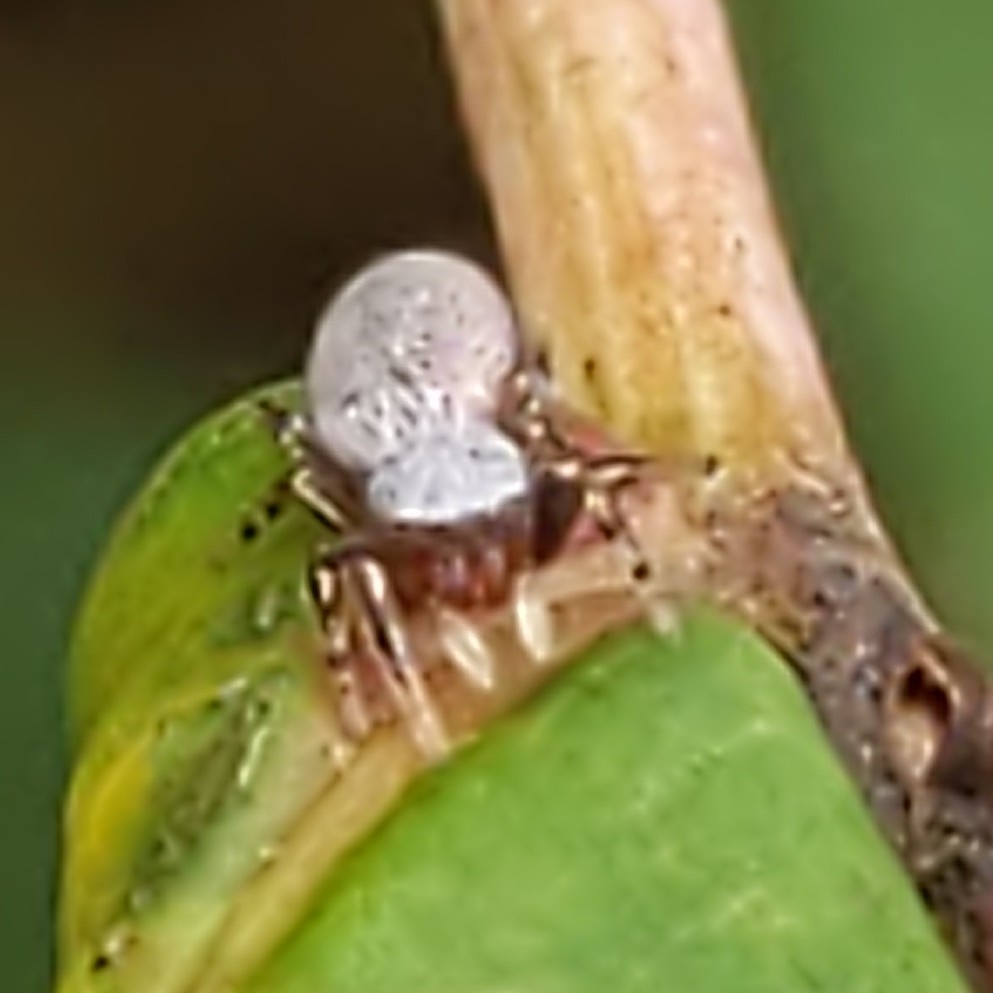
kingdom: Animalia
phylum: Arthropoda
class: Arachnida
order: Araneae
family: Salticidae
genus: Tutelina
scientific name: Tutelina similis
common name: Thick-spined jumping spider
